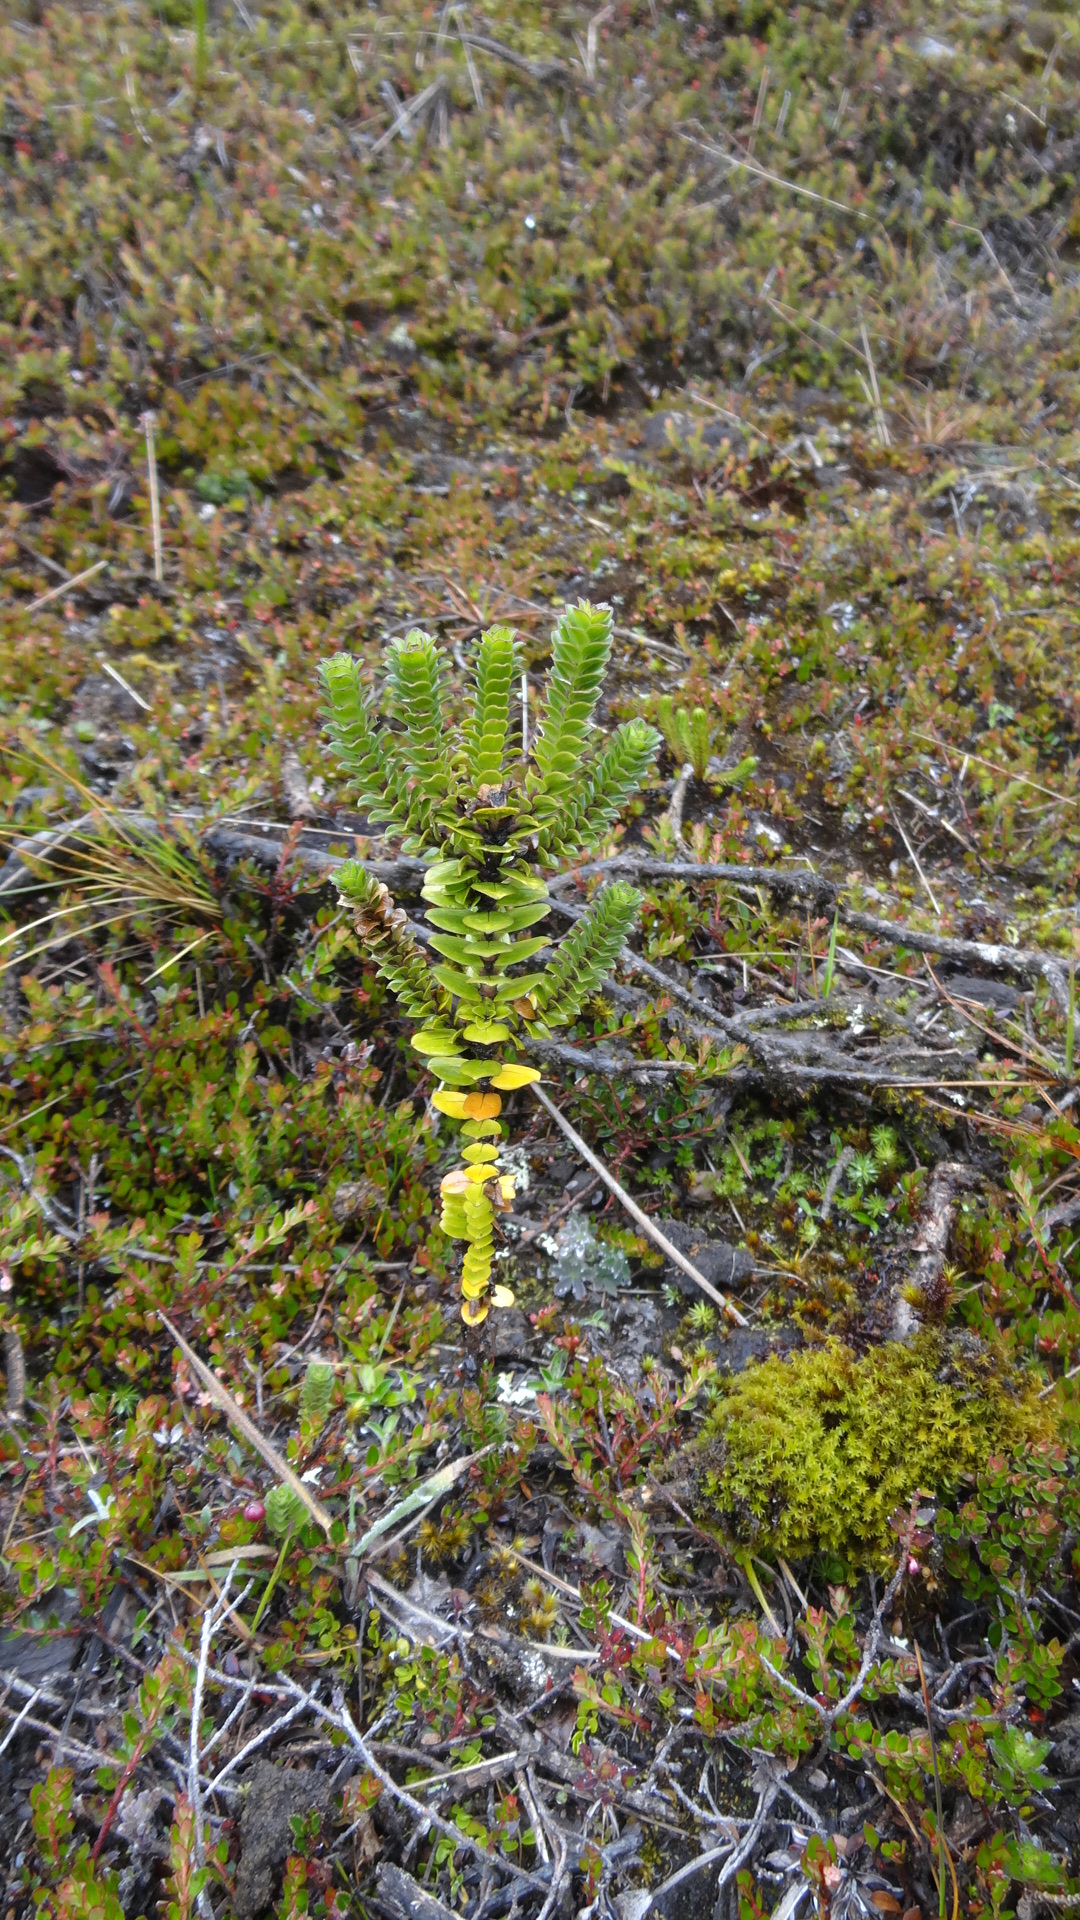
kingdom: Plantae
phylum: Tracheophyta
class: Magnoliopsida
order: Dipsacales
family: Caprifoliaceae
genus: Valeriana
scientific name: Valeriana microphylla
